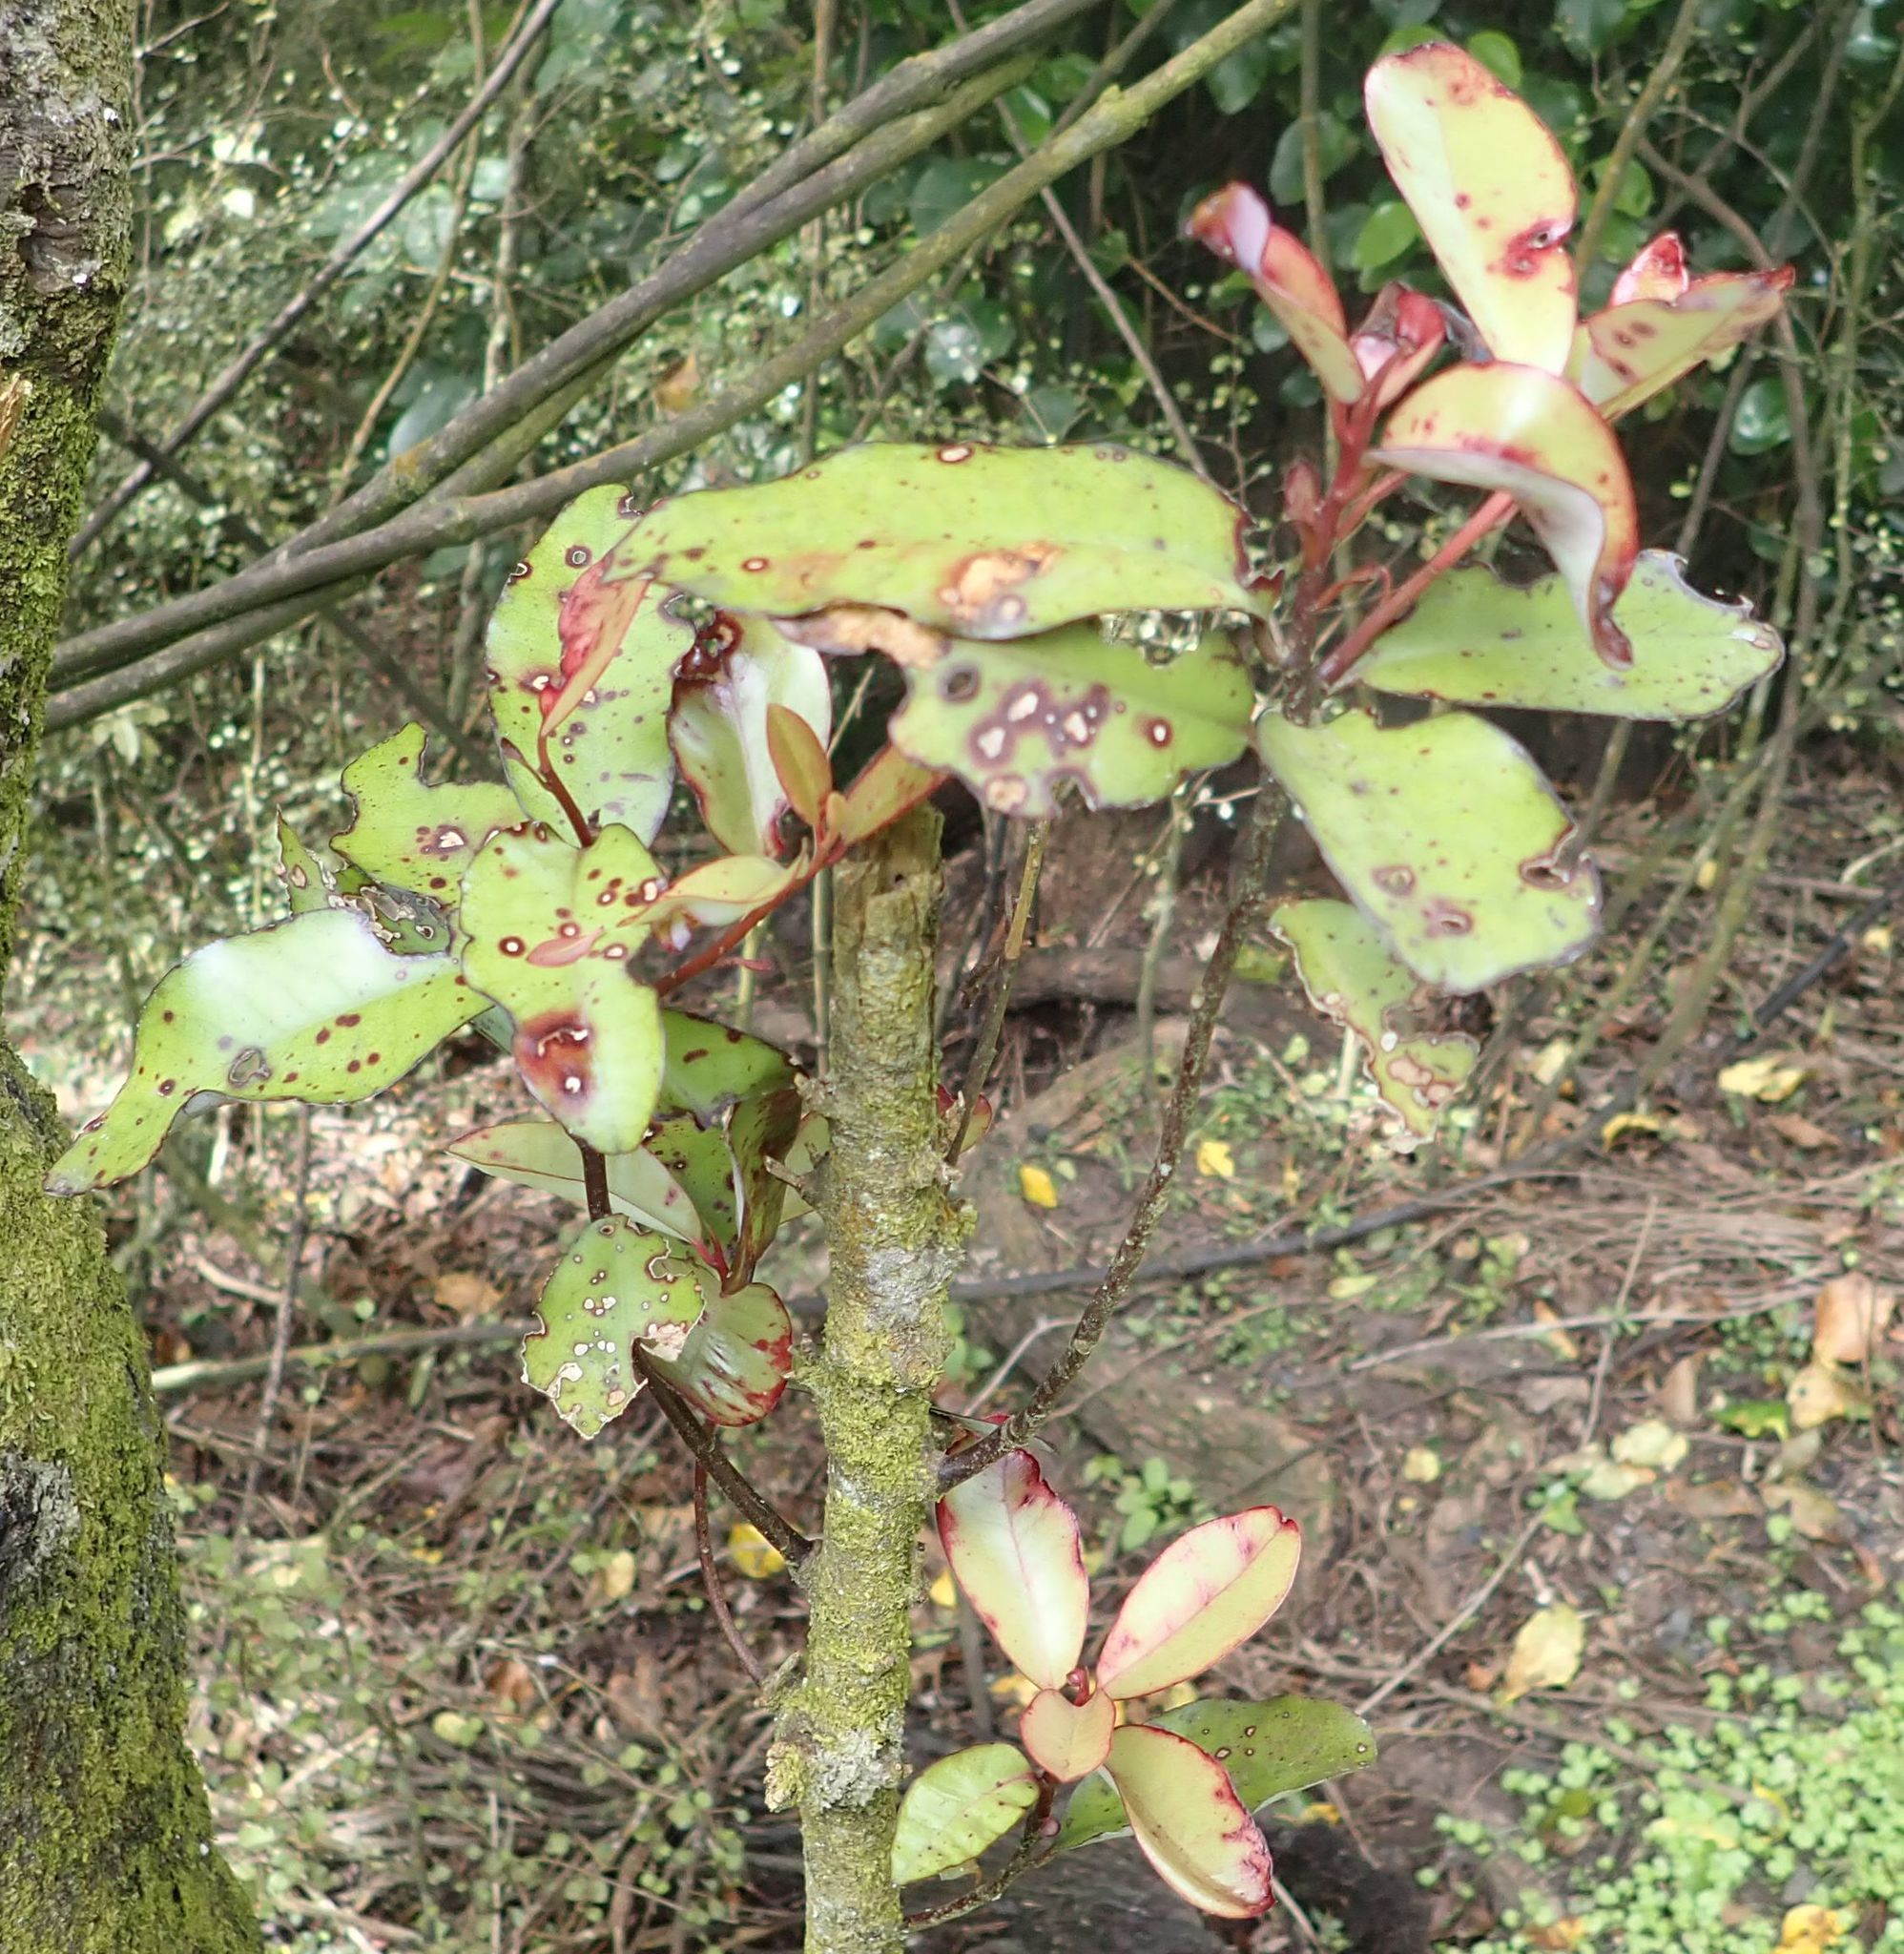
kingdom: Plantae
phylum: Tracheophyta
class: Magnoliopsida
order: Canellales
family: Winteraceae
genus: Pseudowintera
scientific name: Pseudowintera colorata
